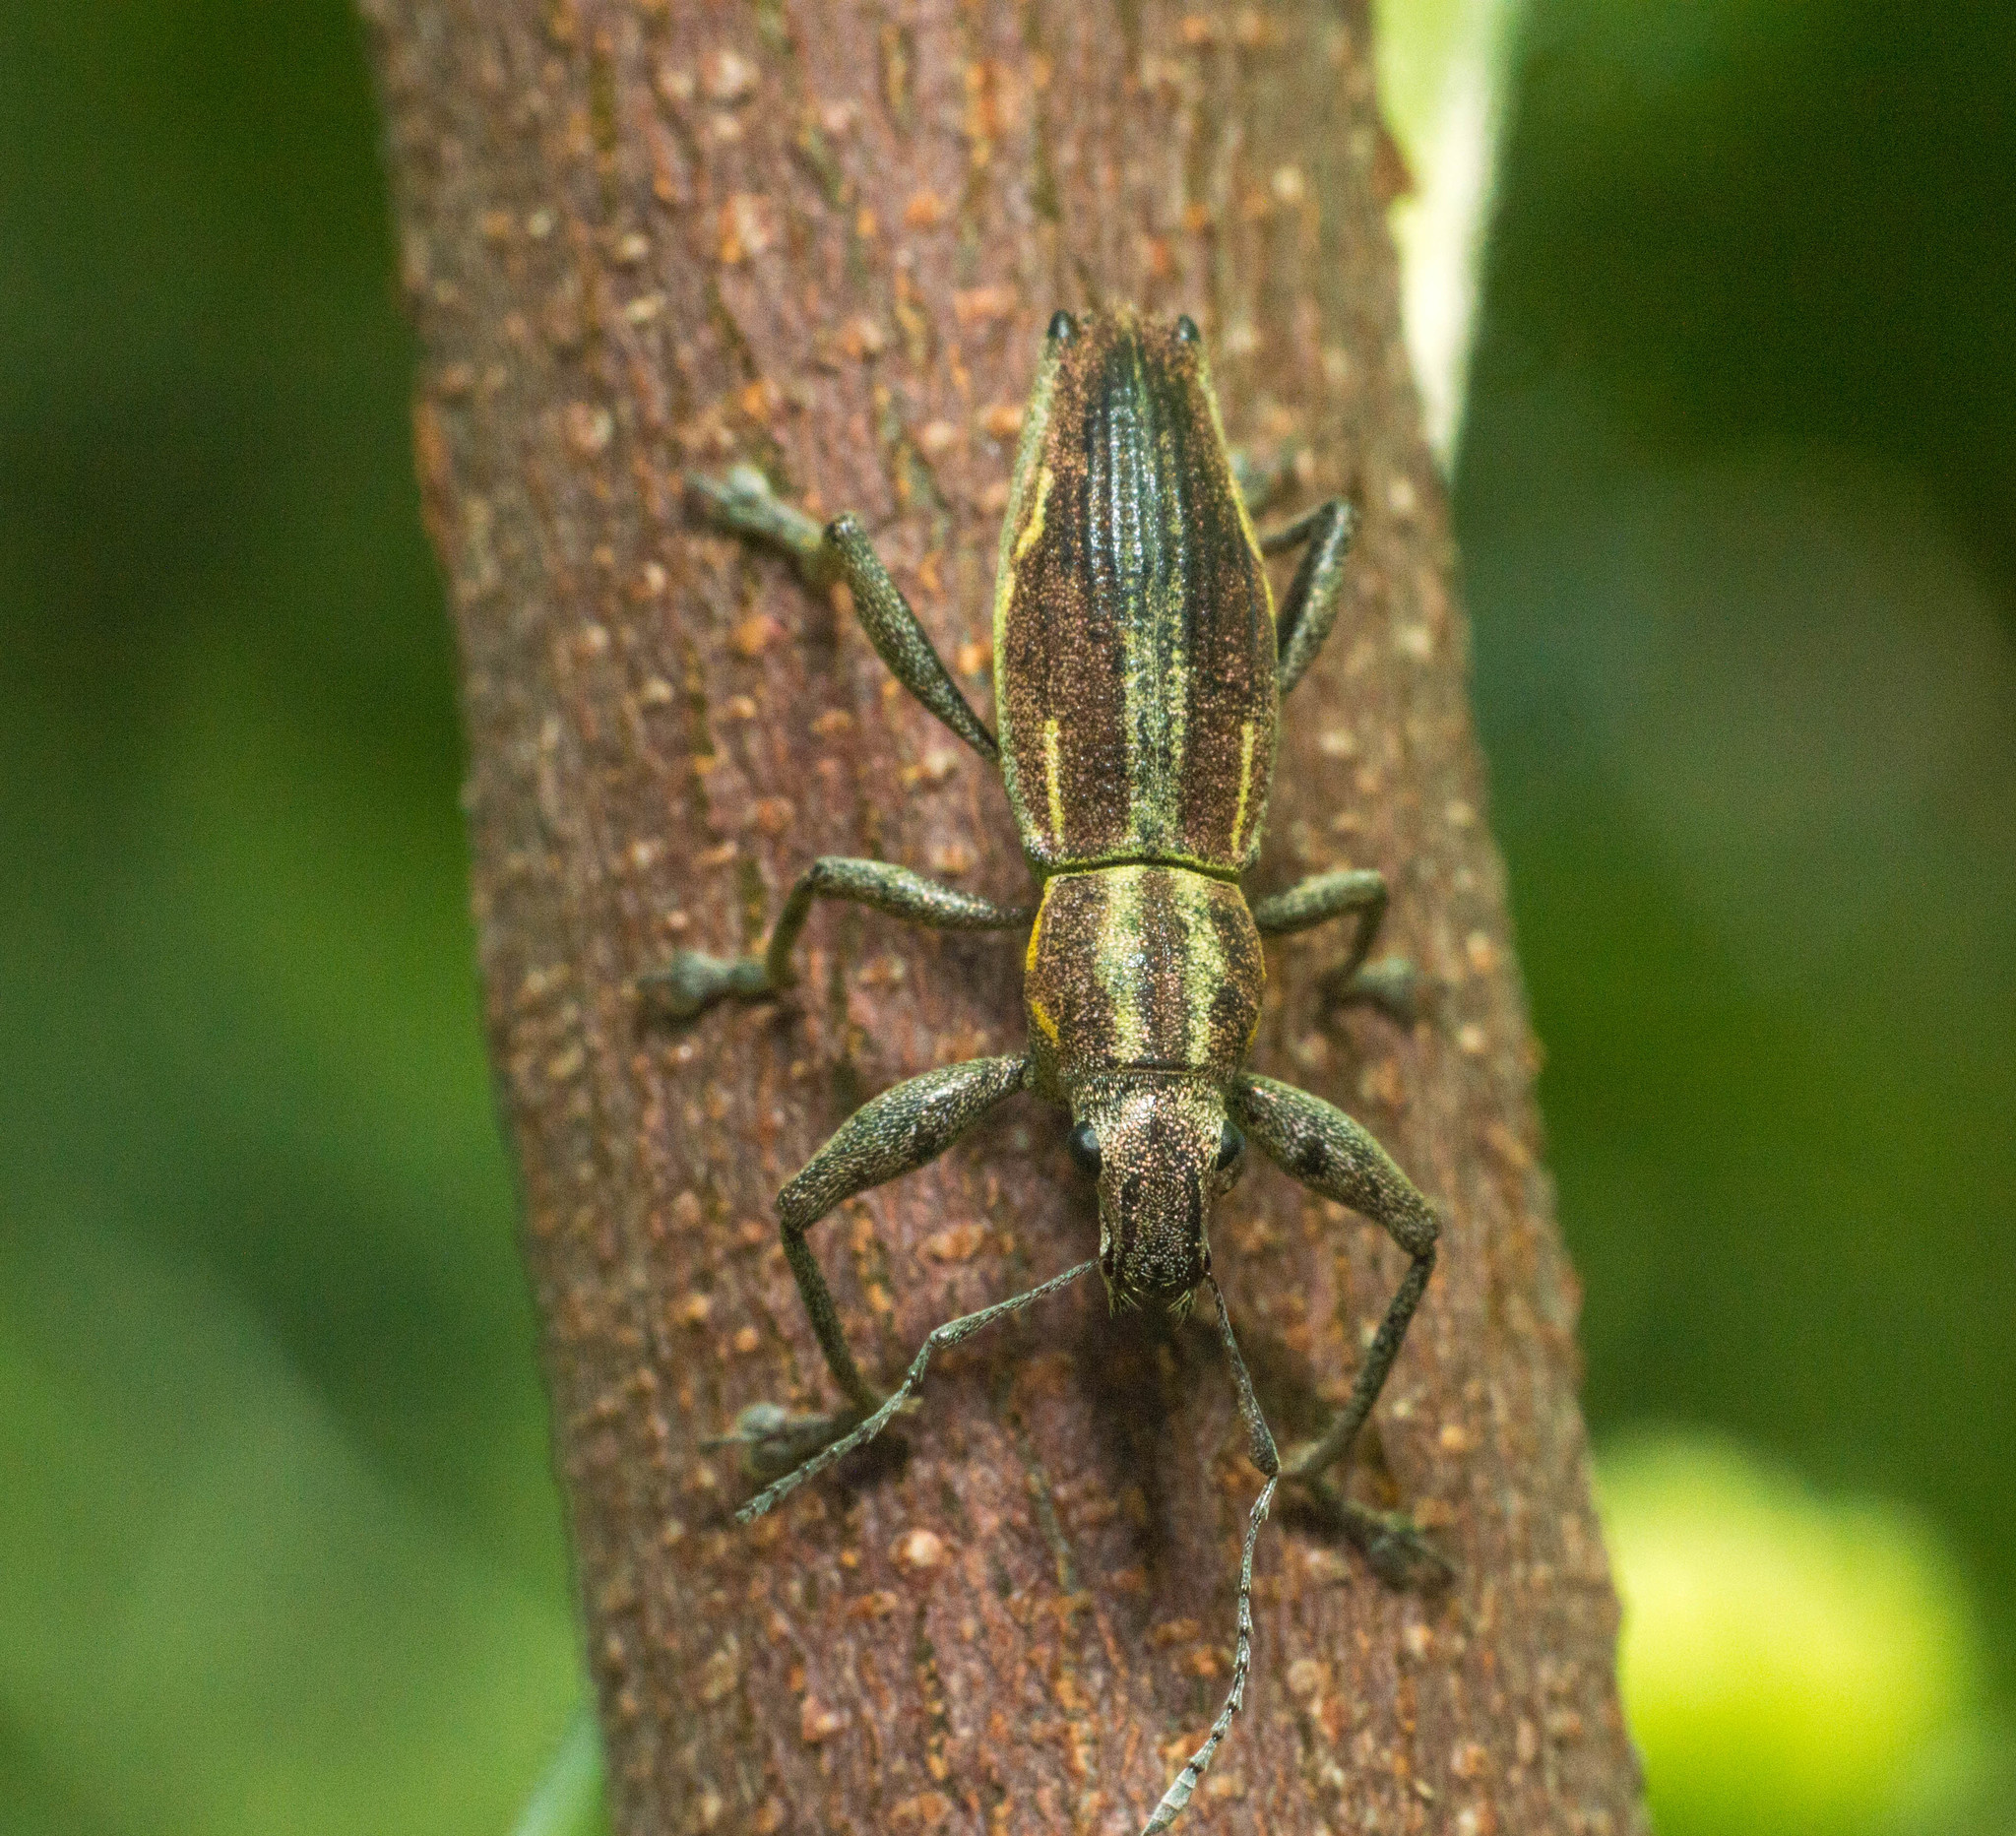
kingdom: Animalia
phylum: Arthropoda
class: Insecta
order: Coleoptera
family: Curculionidae
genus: Naupactus
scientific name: Naupactus xanthographus
